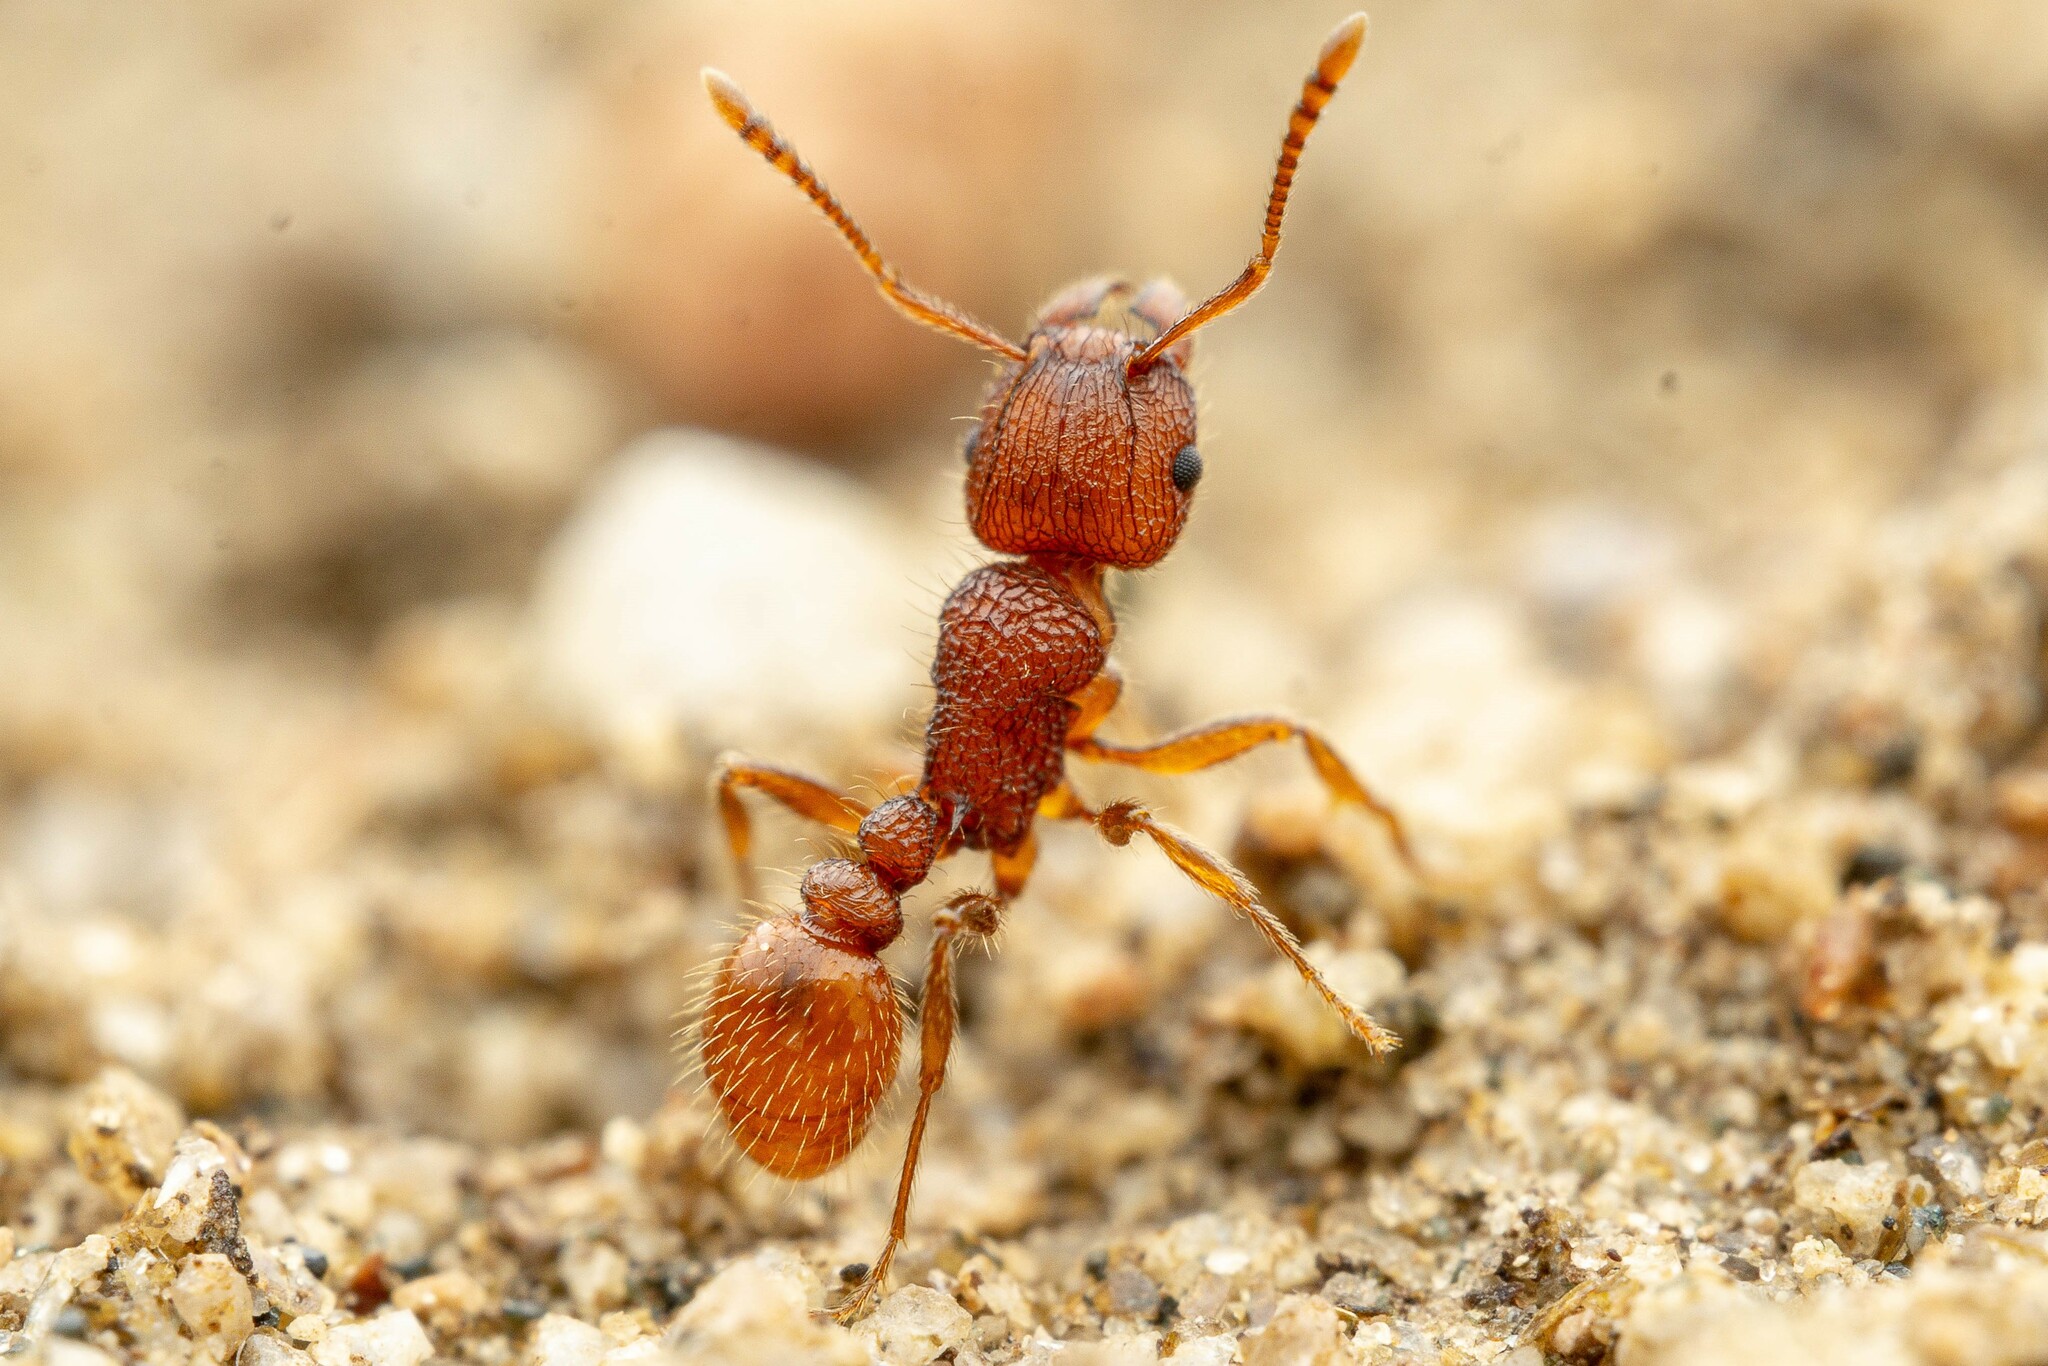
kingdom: Animalia
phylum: Arthropoda
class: Insecta
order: Hymenoptera
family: Formicidae
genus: Tetramorium
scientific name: Tetramorium spinosum
